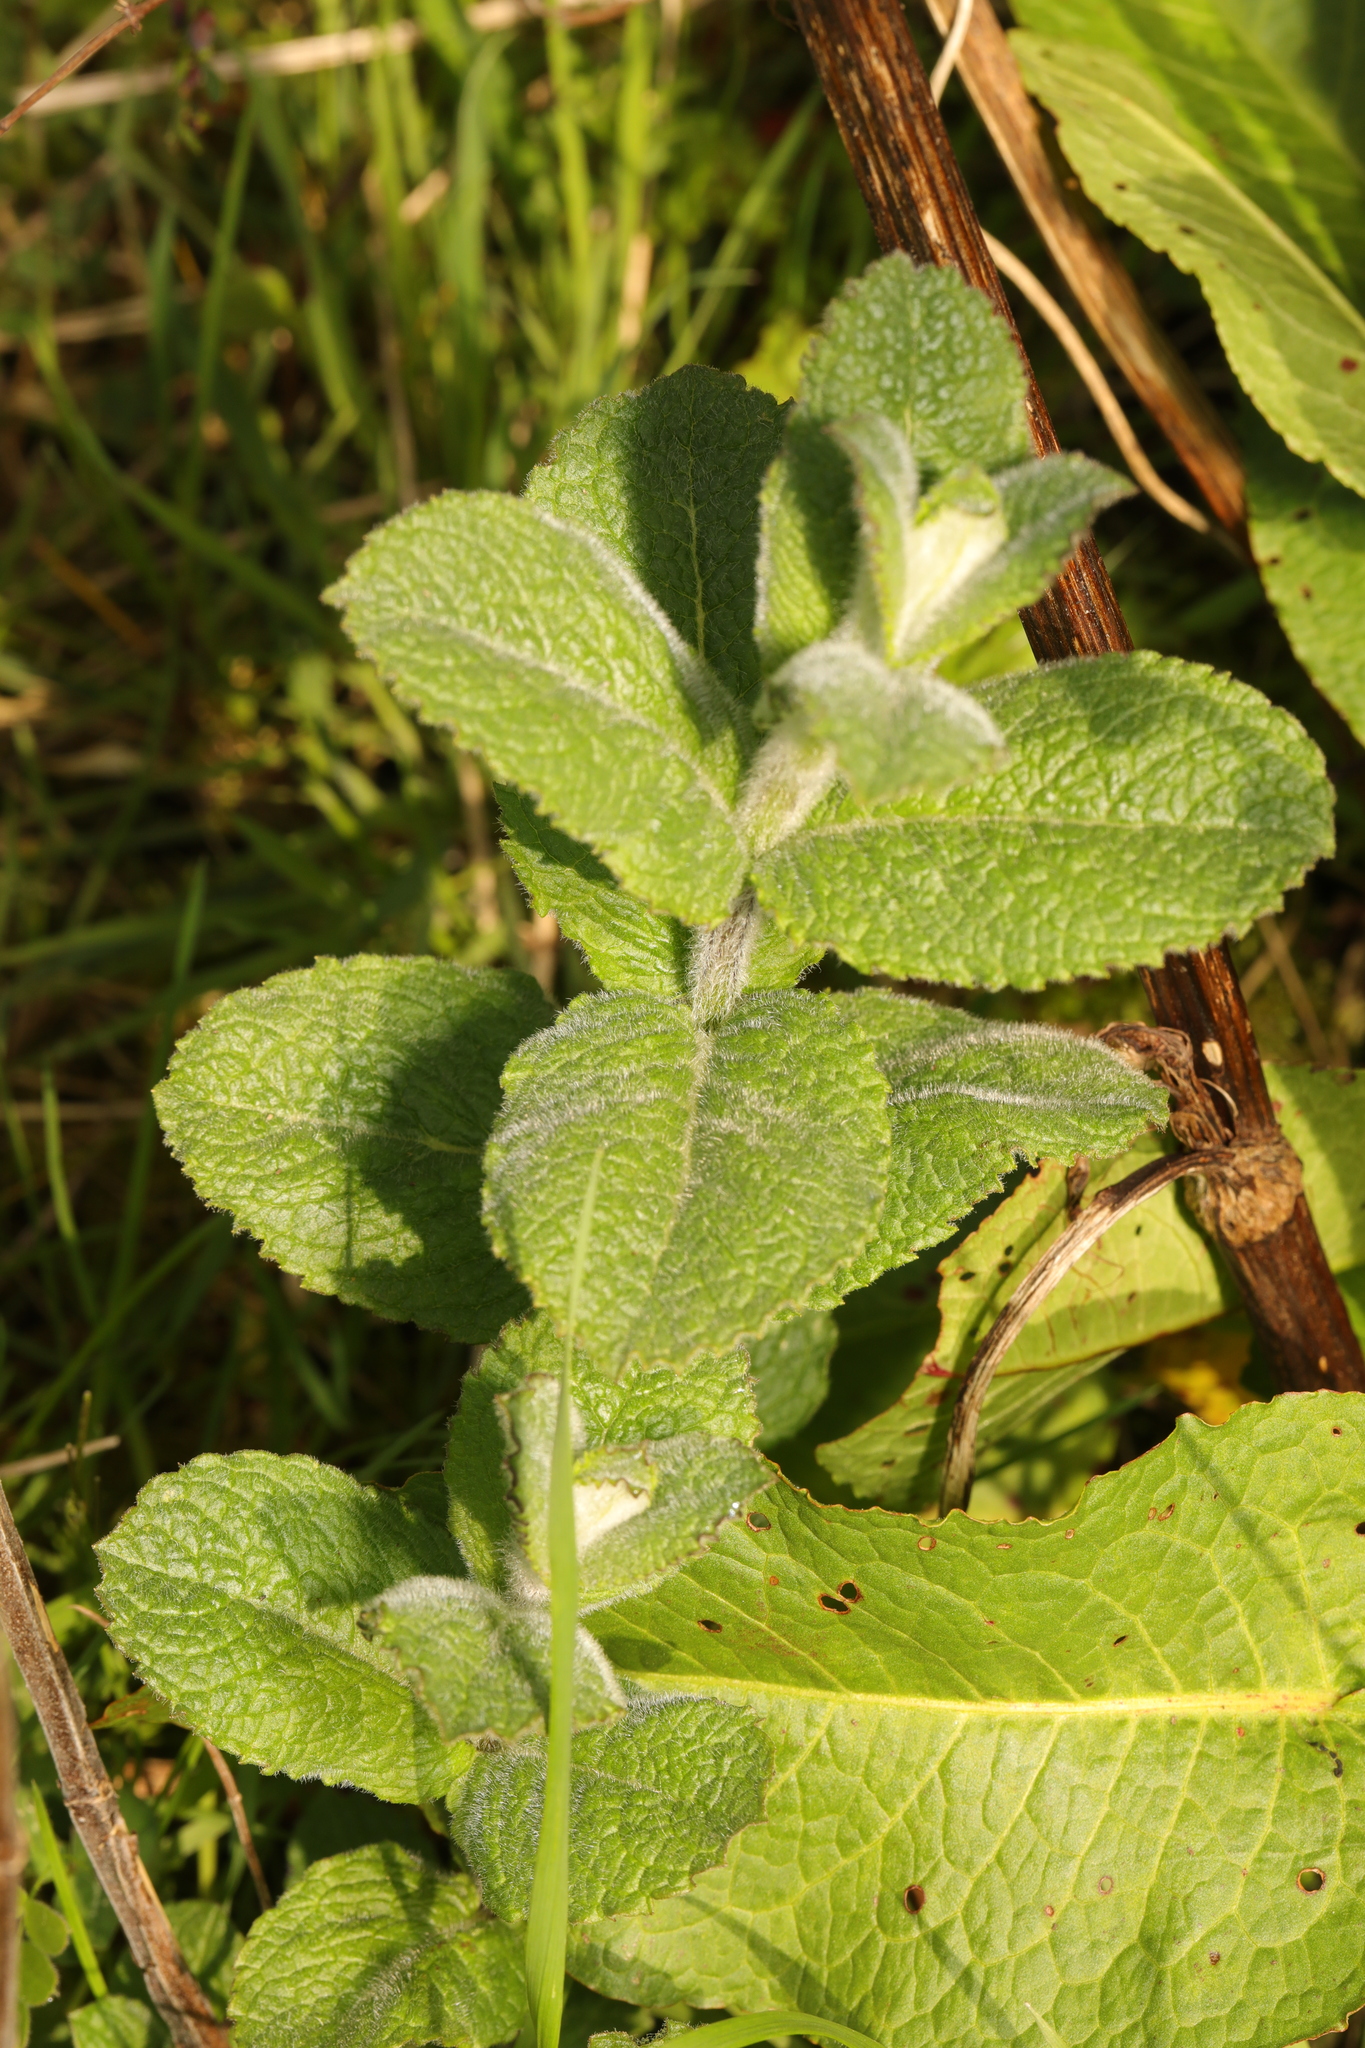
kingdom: Plantae
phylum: Tracheophyta
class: Magnoliopsida
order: Lamiales
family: Lamiaceae
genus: Mentha
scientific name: Mentha villosa
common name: Apple mint
